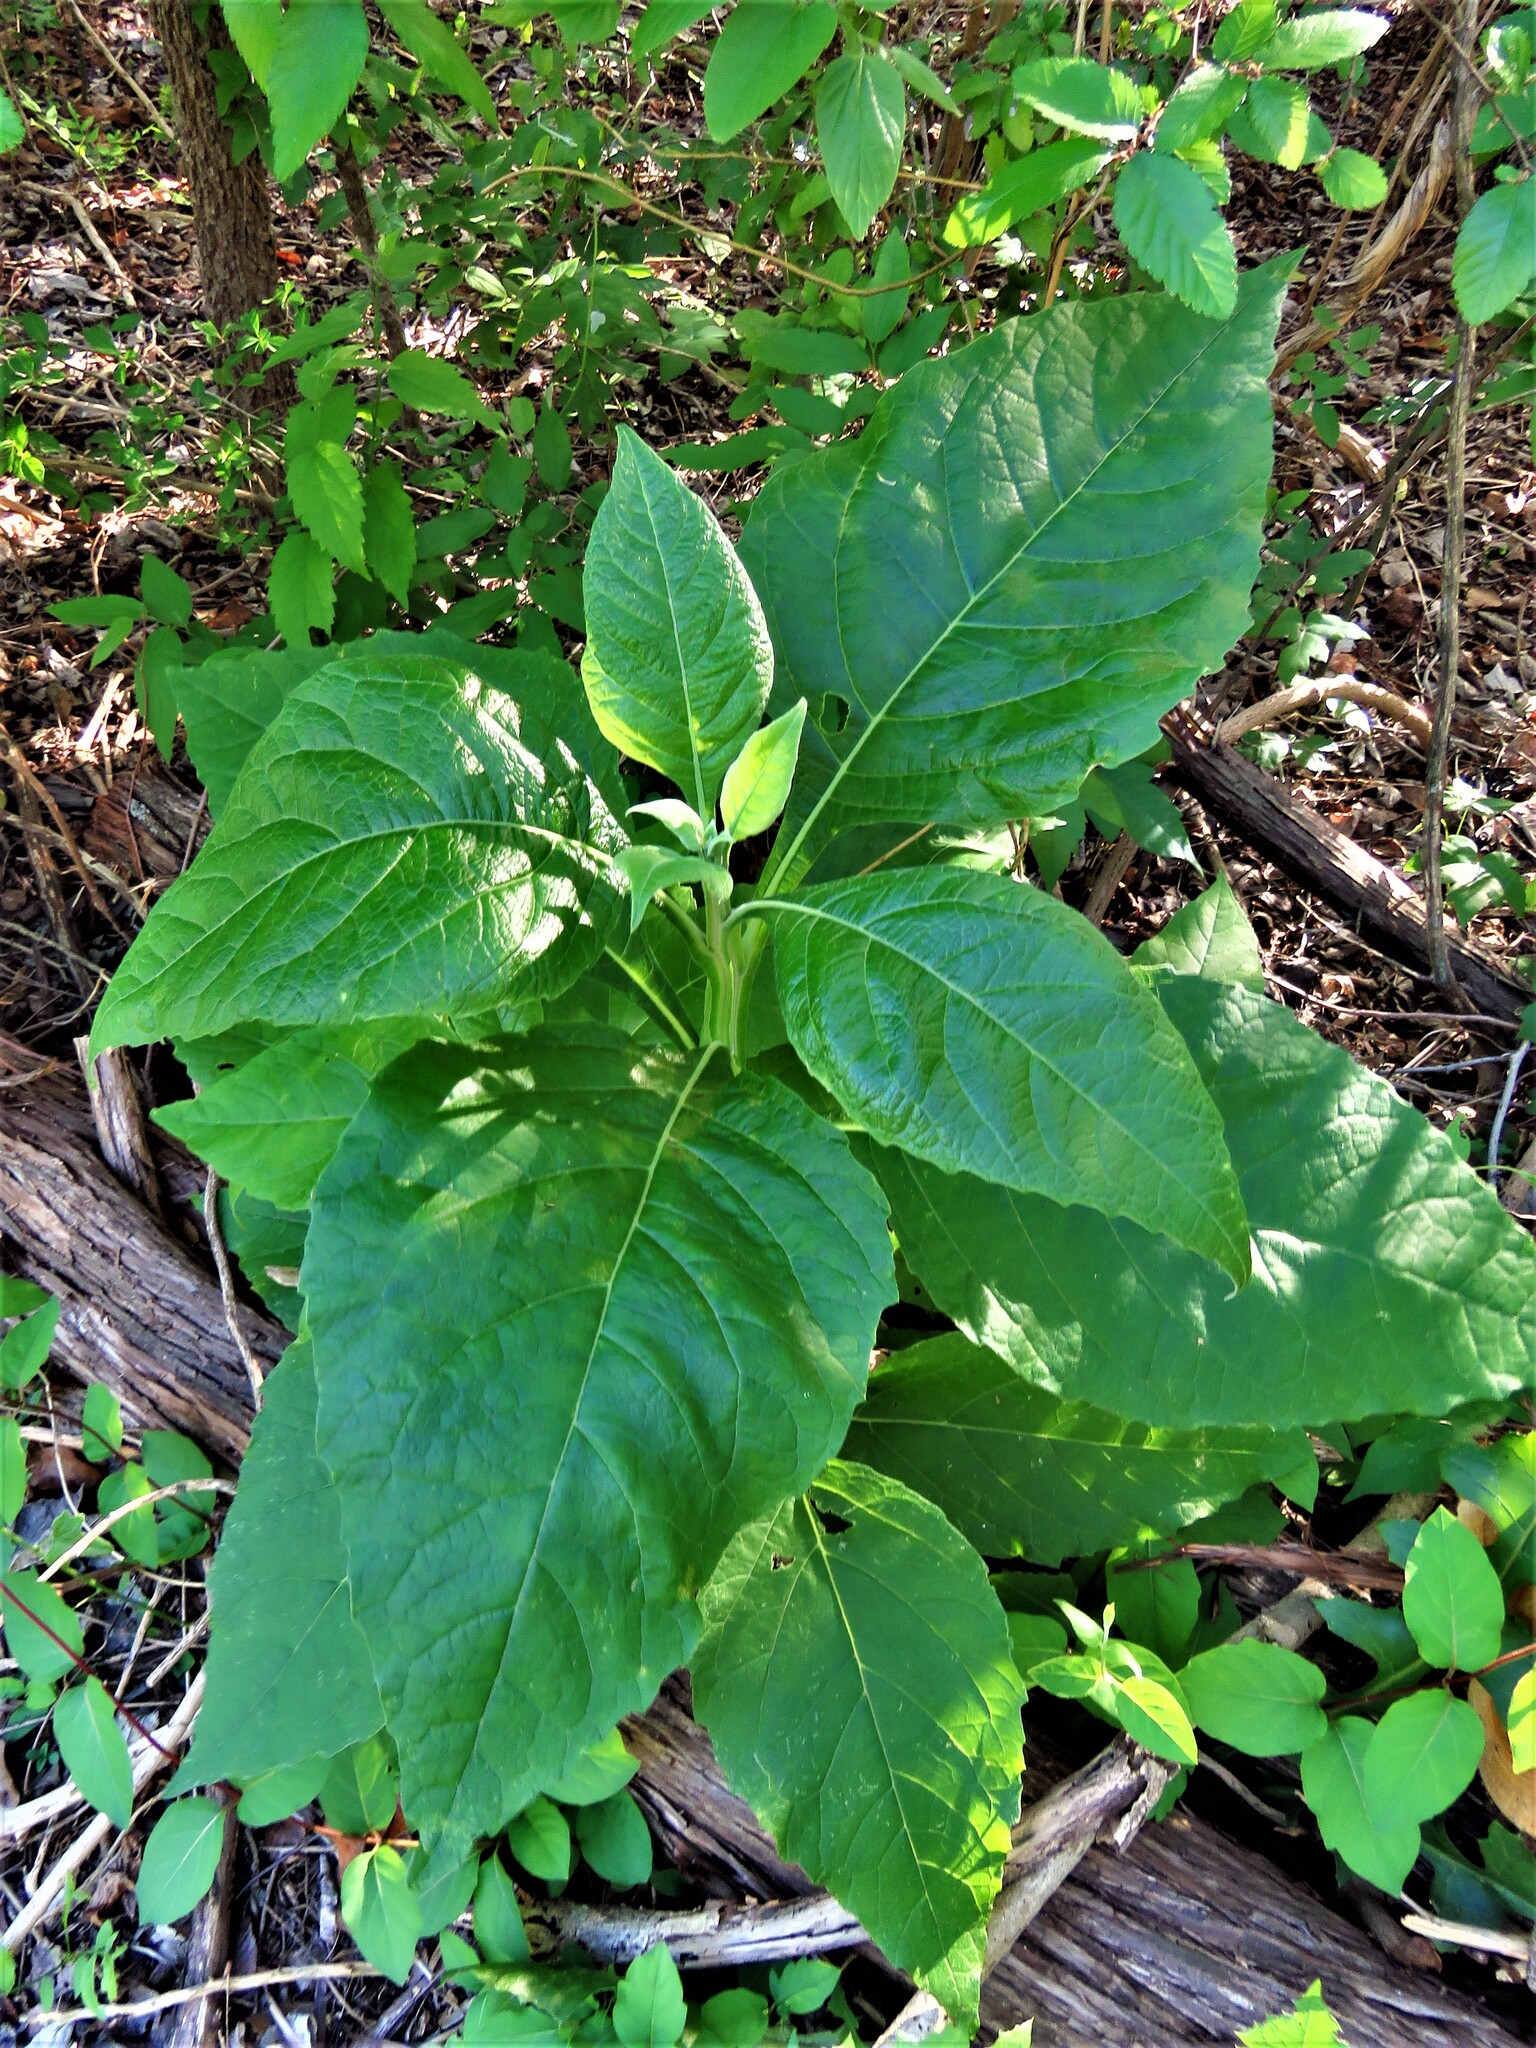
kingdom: Plantae
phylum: Tracheophyta
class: Magnoliopsida
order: Asterales
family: Asteraceae
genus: Verbesina
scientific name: Verbesina virginica
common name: Frostweed
